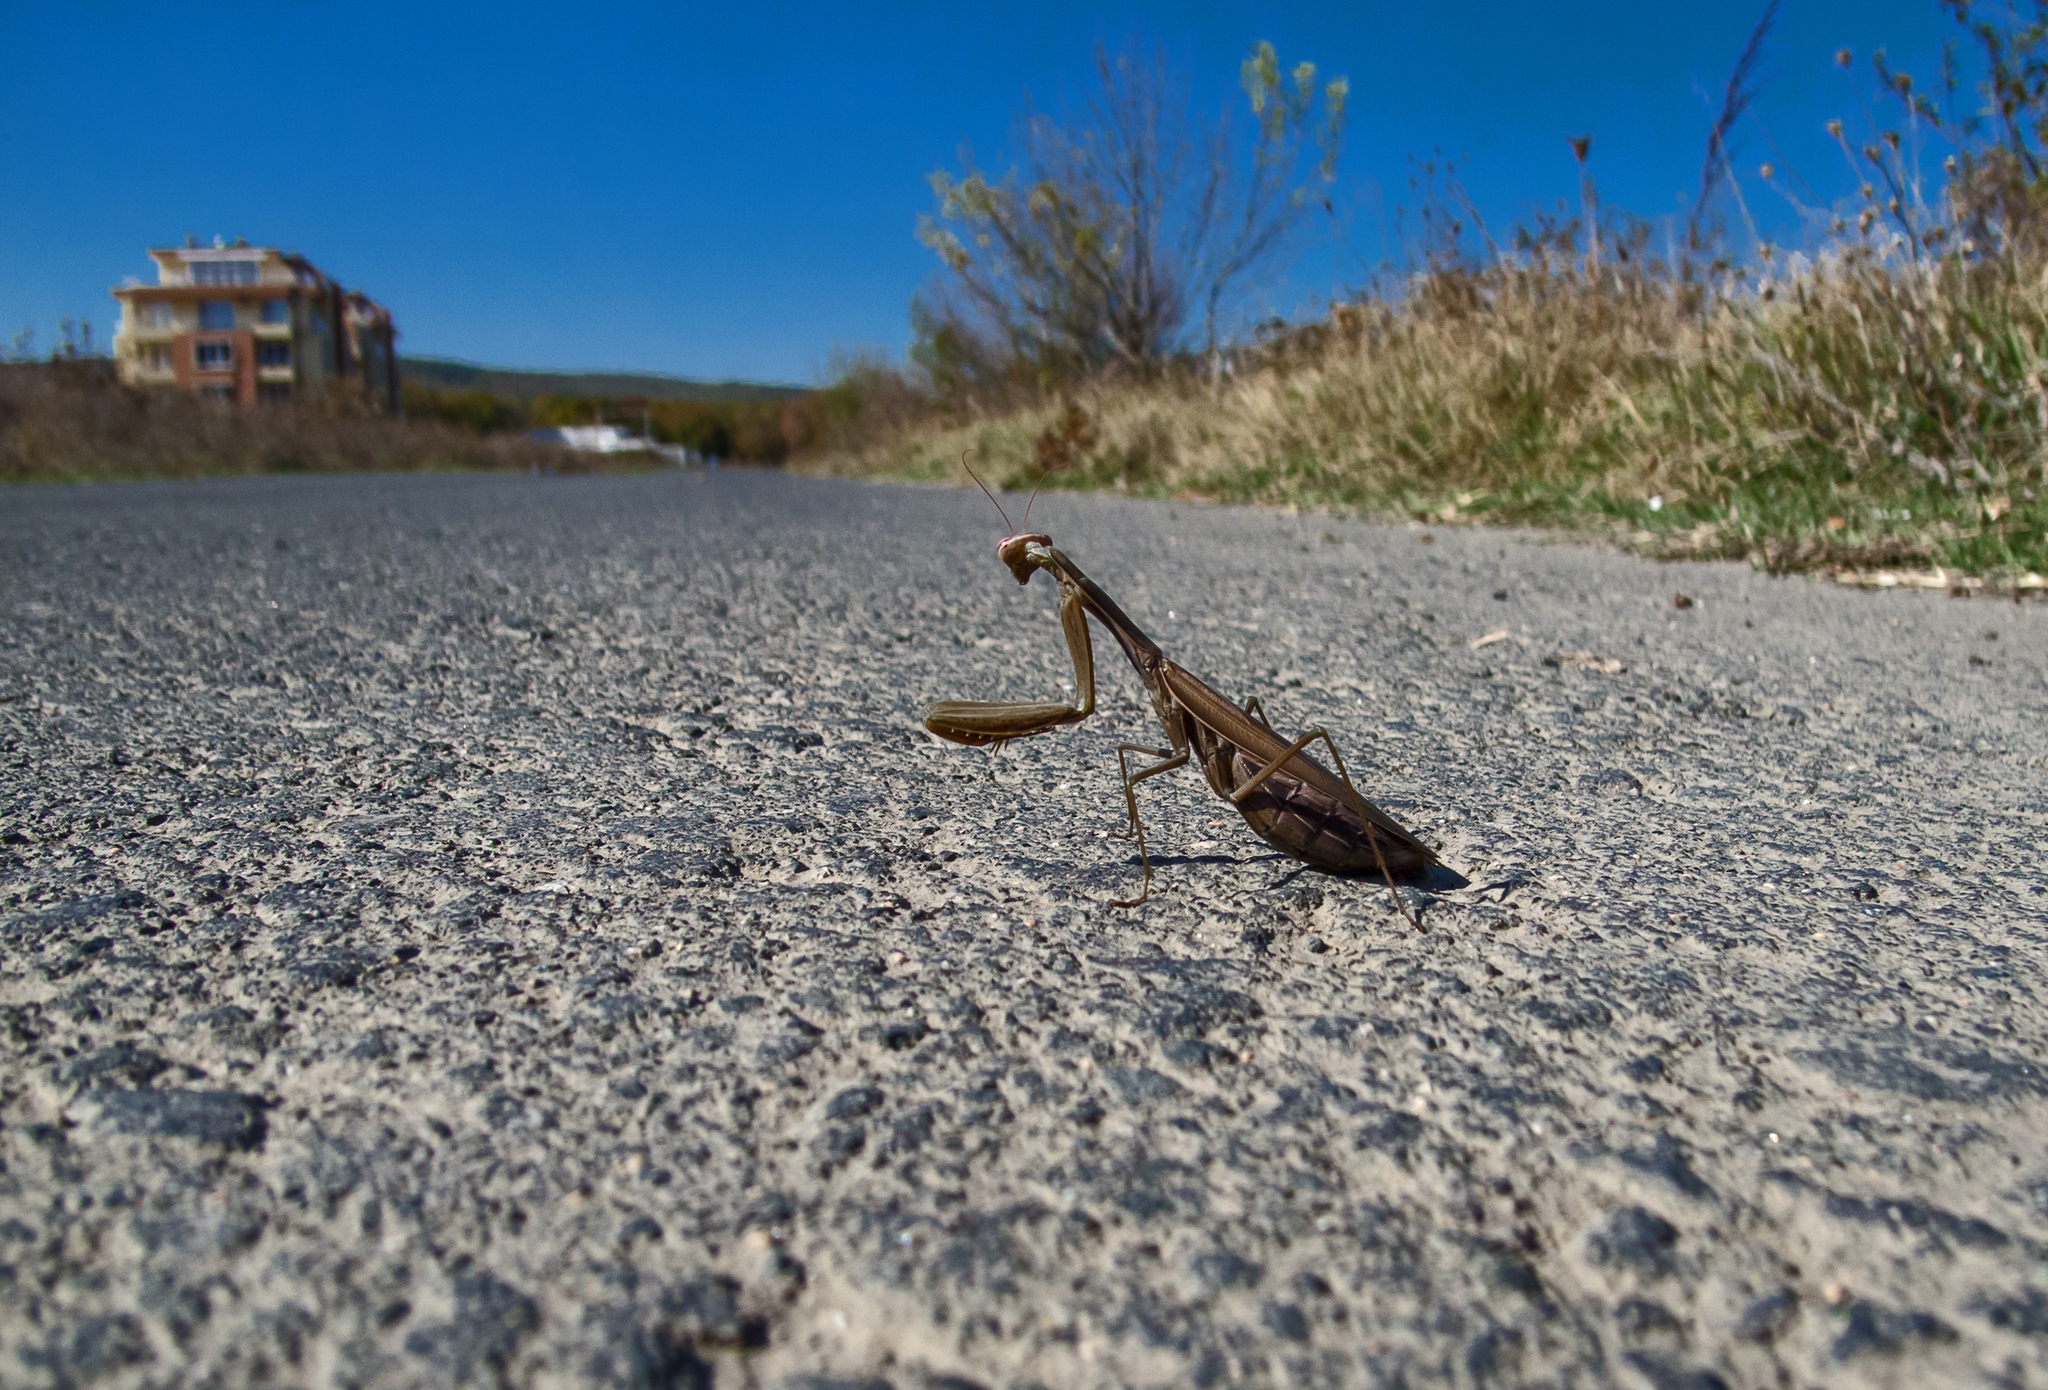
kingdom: Animalia
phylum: Arthropoda
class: Insecta
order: Mantodea
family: Mantidae
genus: Mantis
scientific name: Mantis religiosa
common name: Praying mantis
